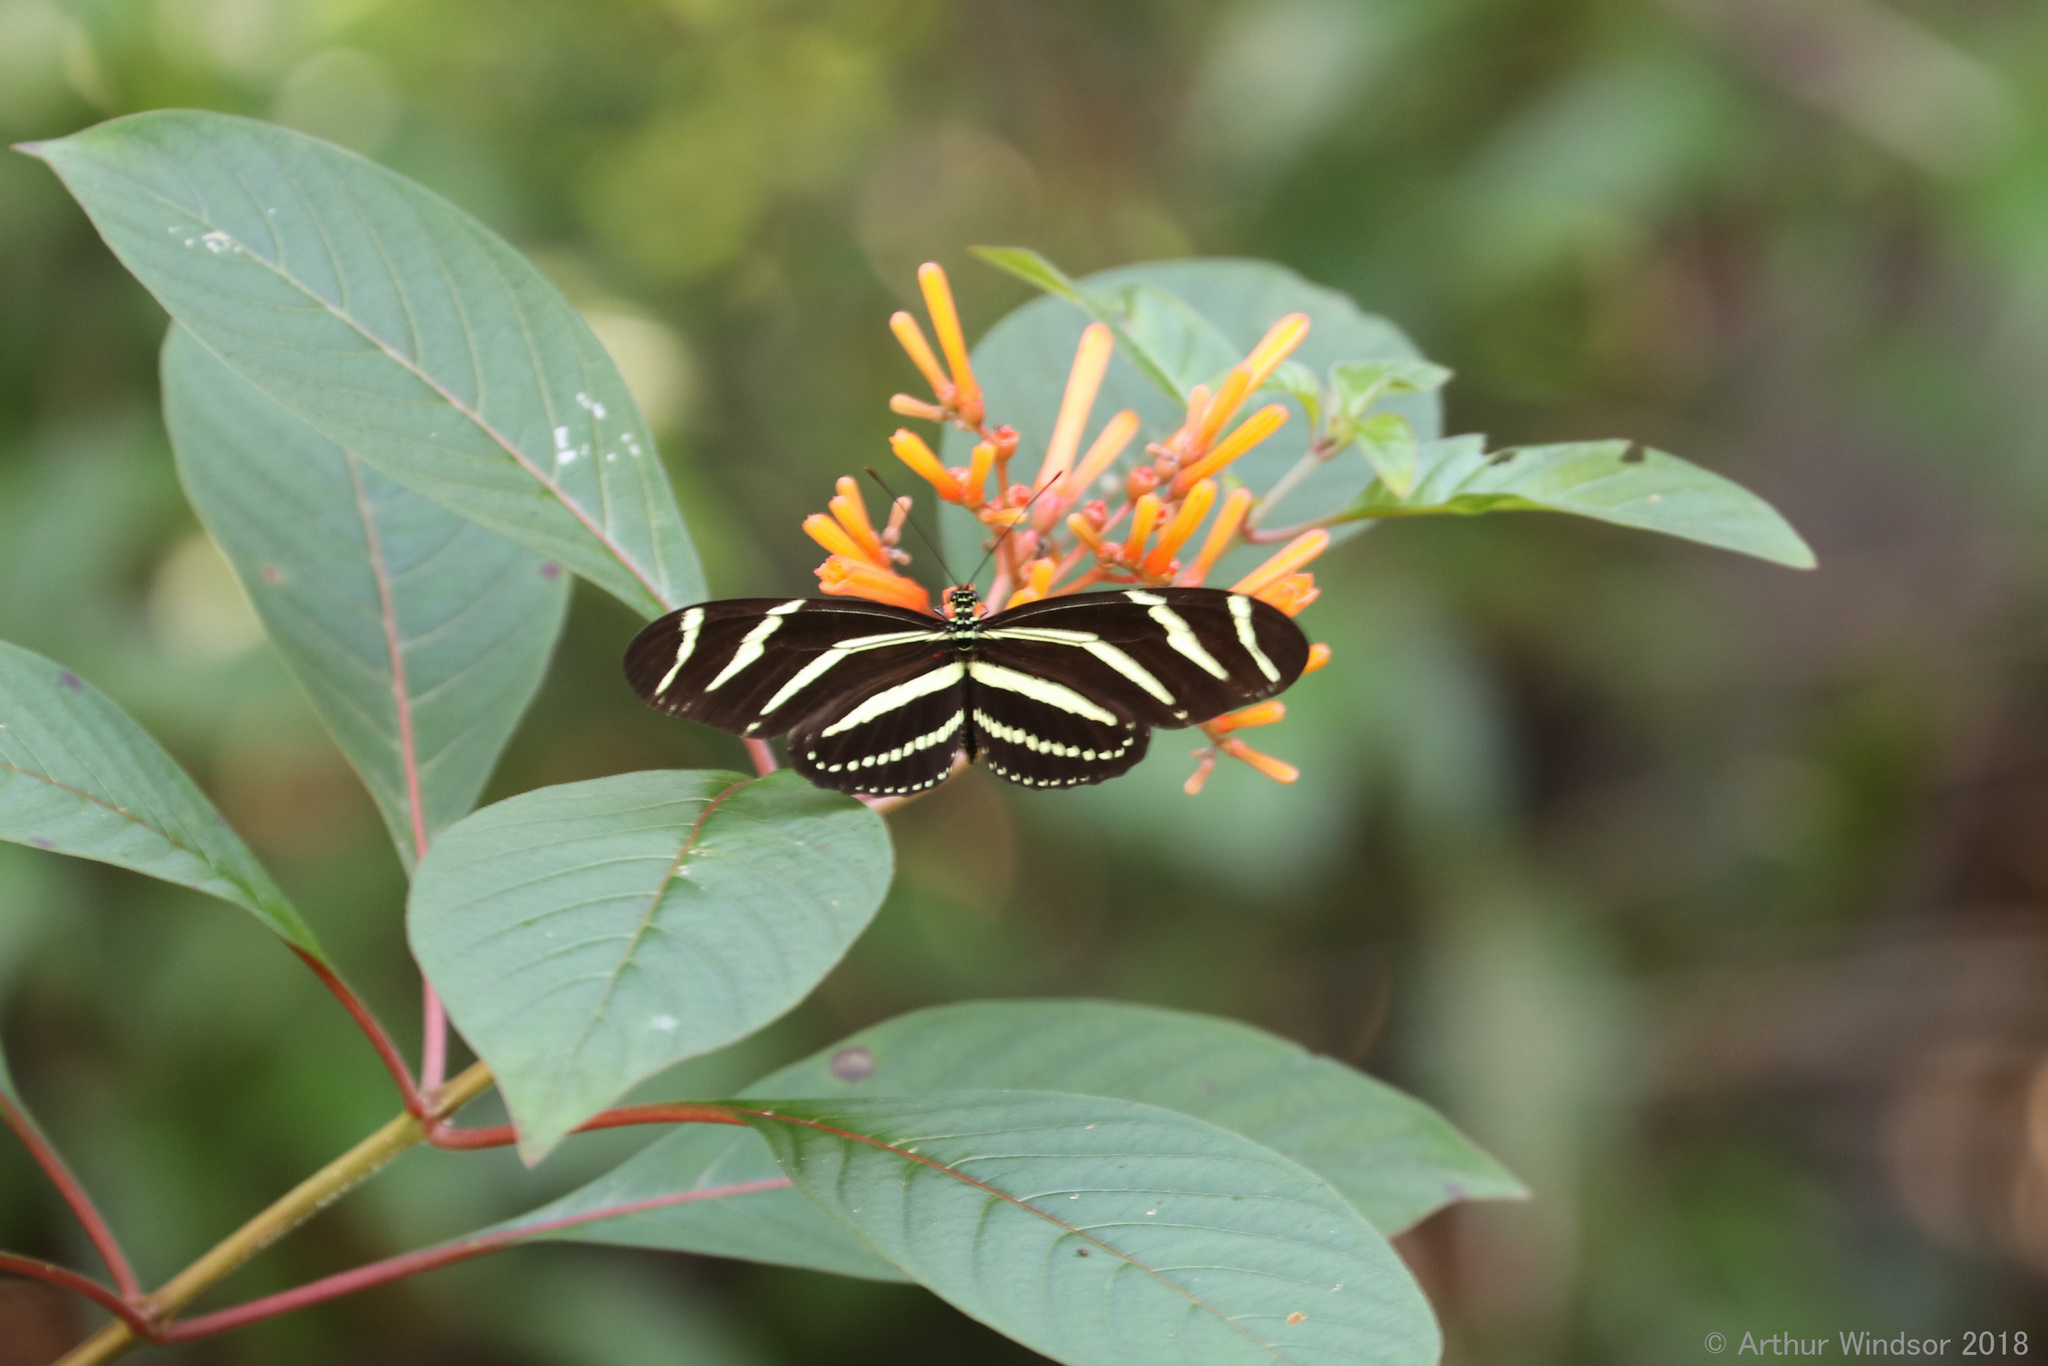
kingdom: Animalia
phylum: Arthropoda
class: Insecta
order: Lepidoptera
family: Nymphalidae
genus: Heliconius
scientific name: Heliconius charithonia
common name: Zebra long wing
